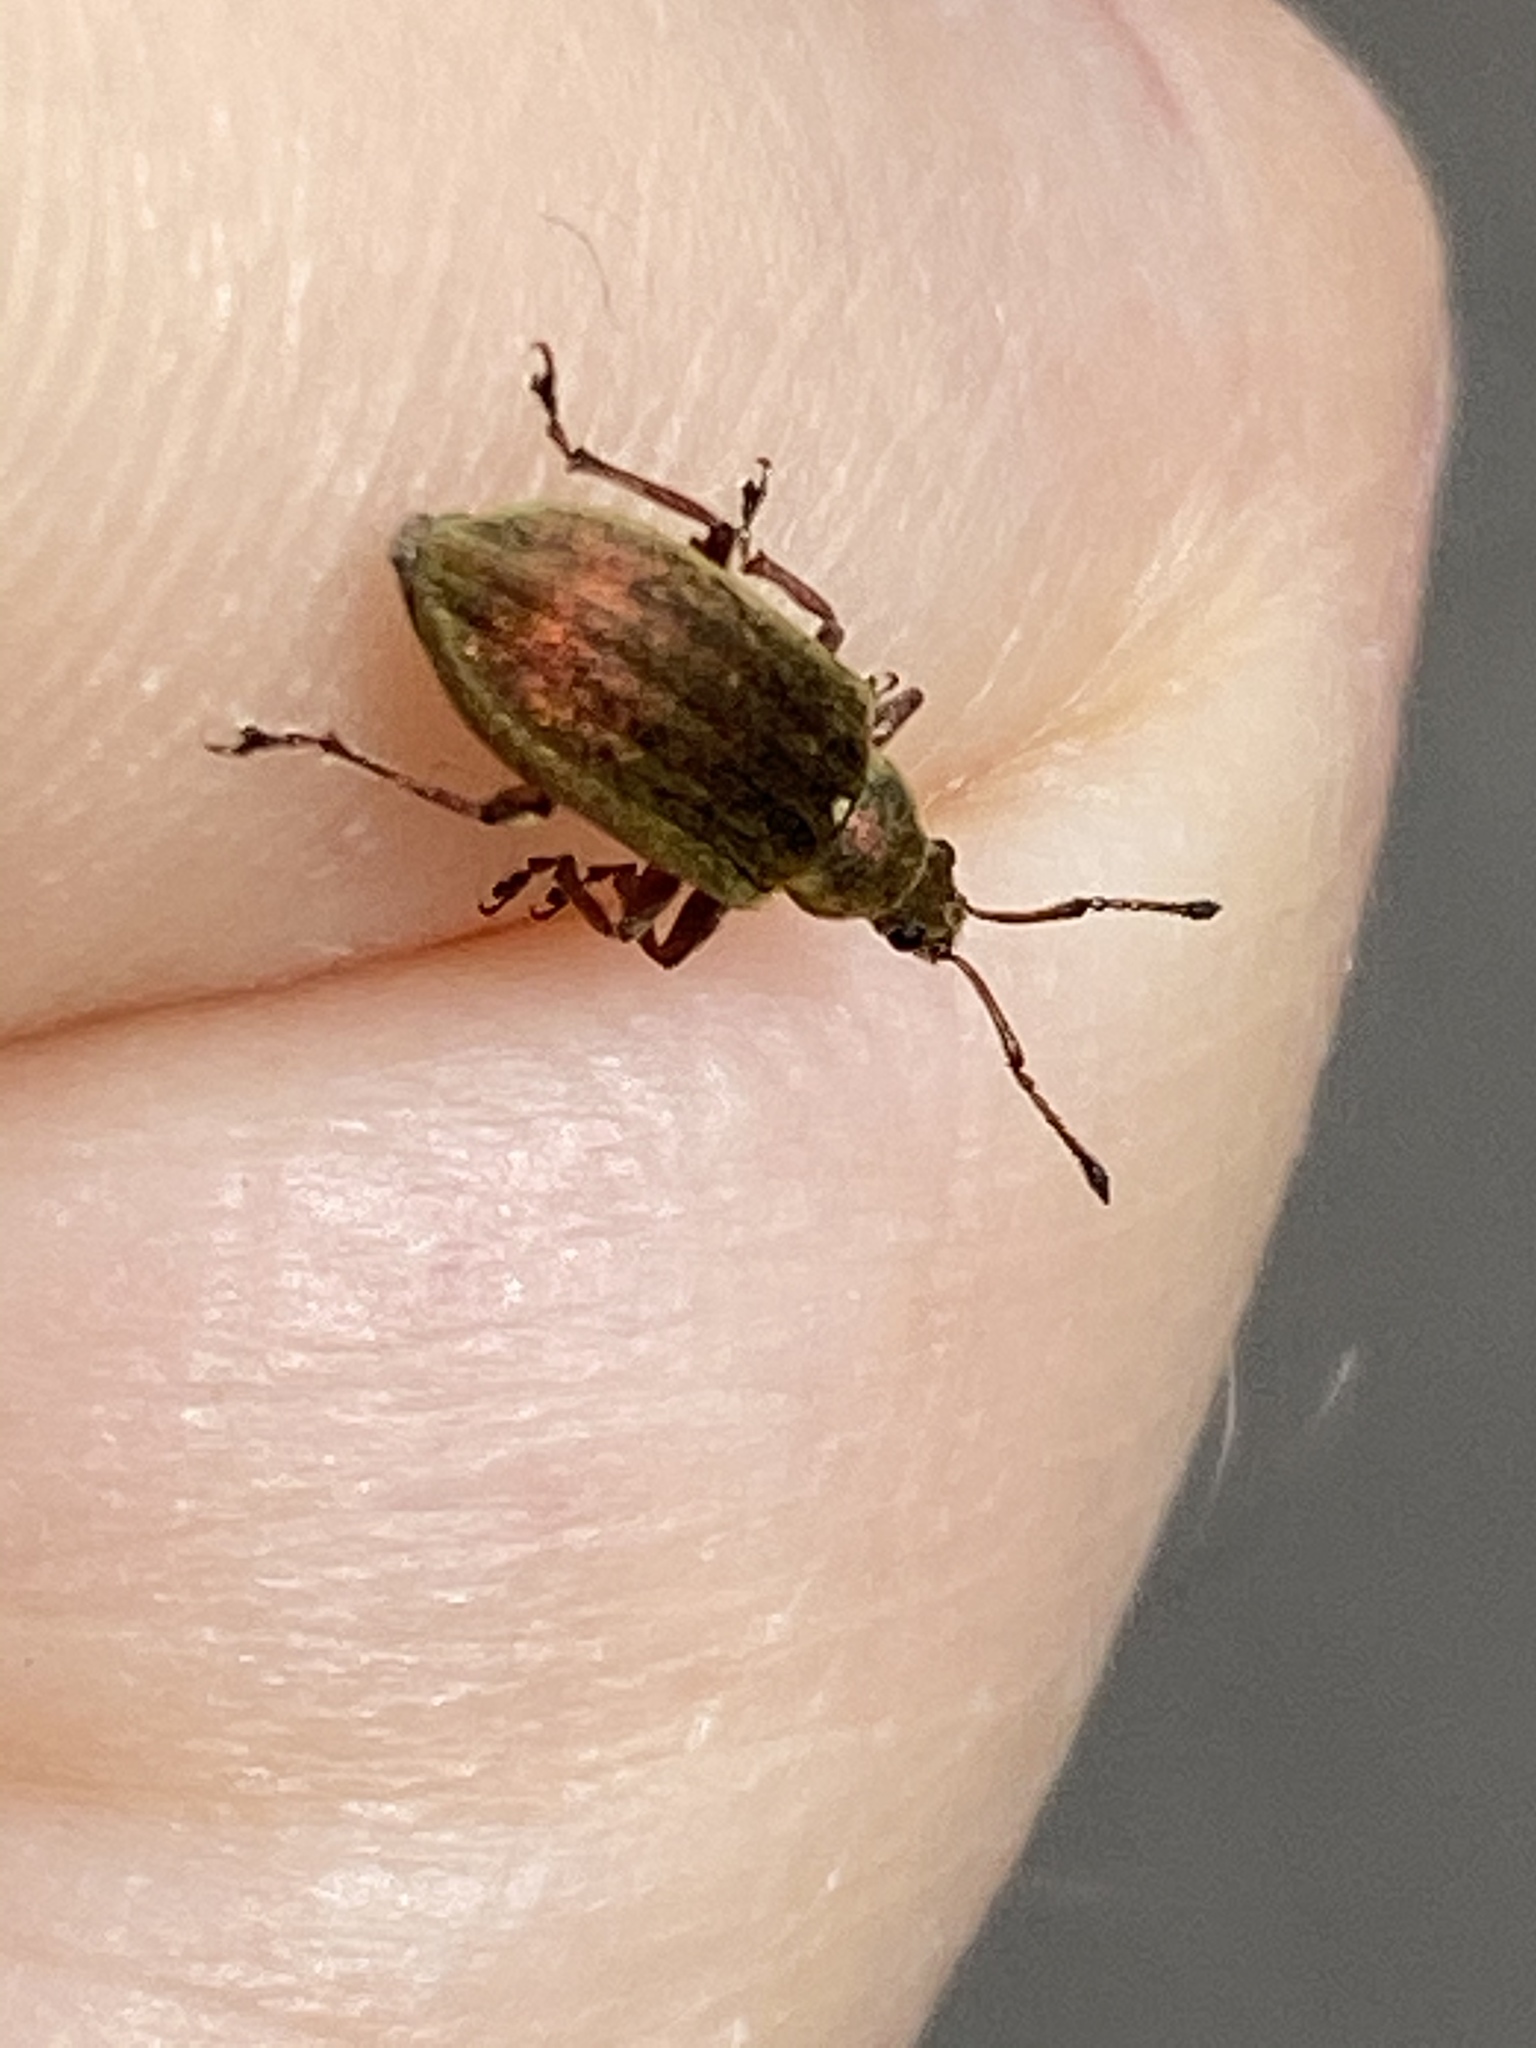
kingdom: Animalia
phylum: Arthropoda
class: Insecta
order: Coleoptera
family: Curculionidae
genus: Phyllobius
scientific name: Phyllobius pyri
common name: Common leaf weevil
